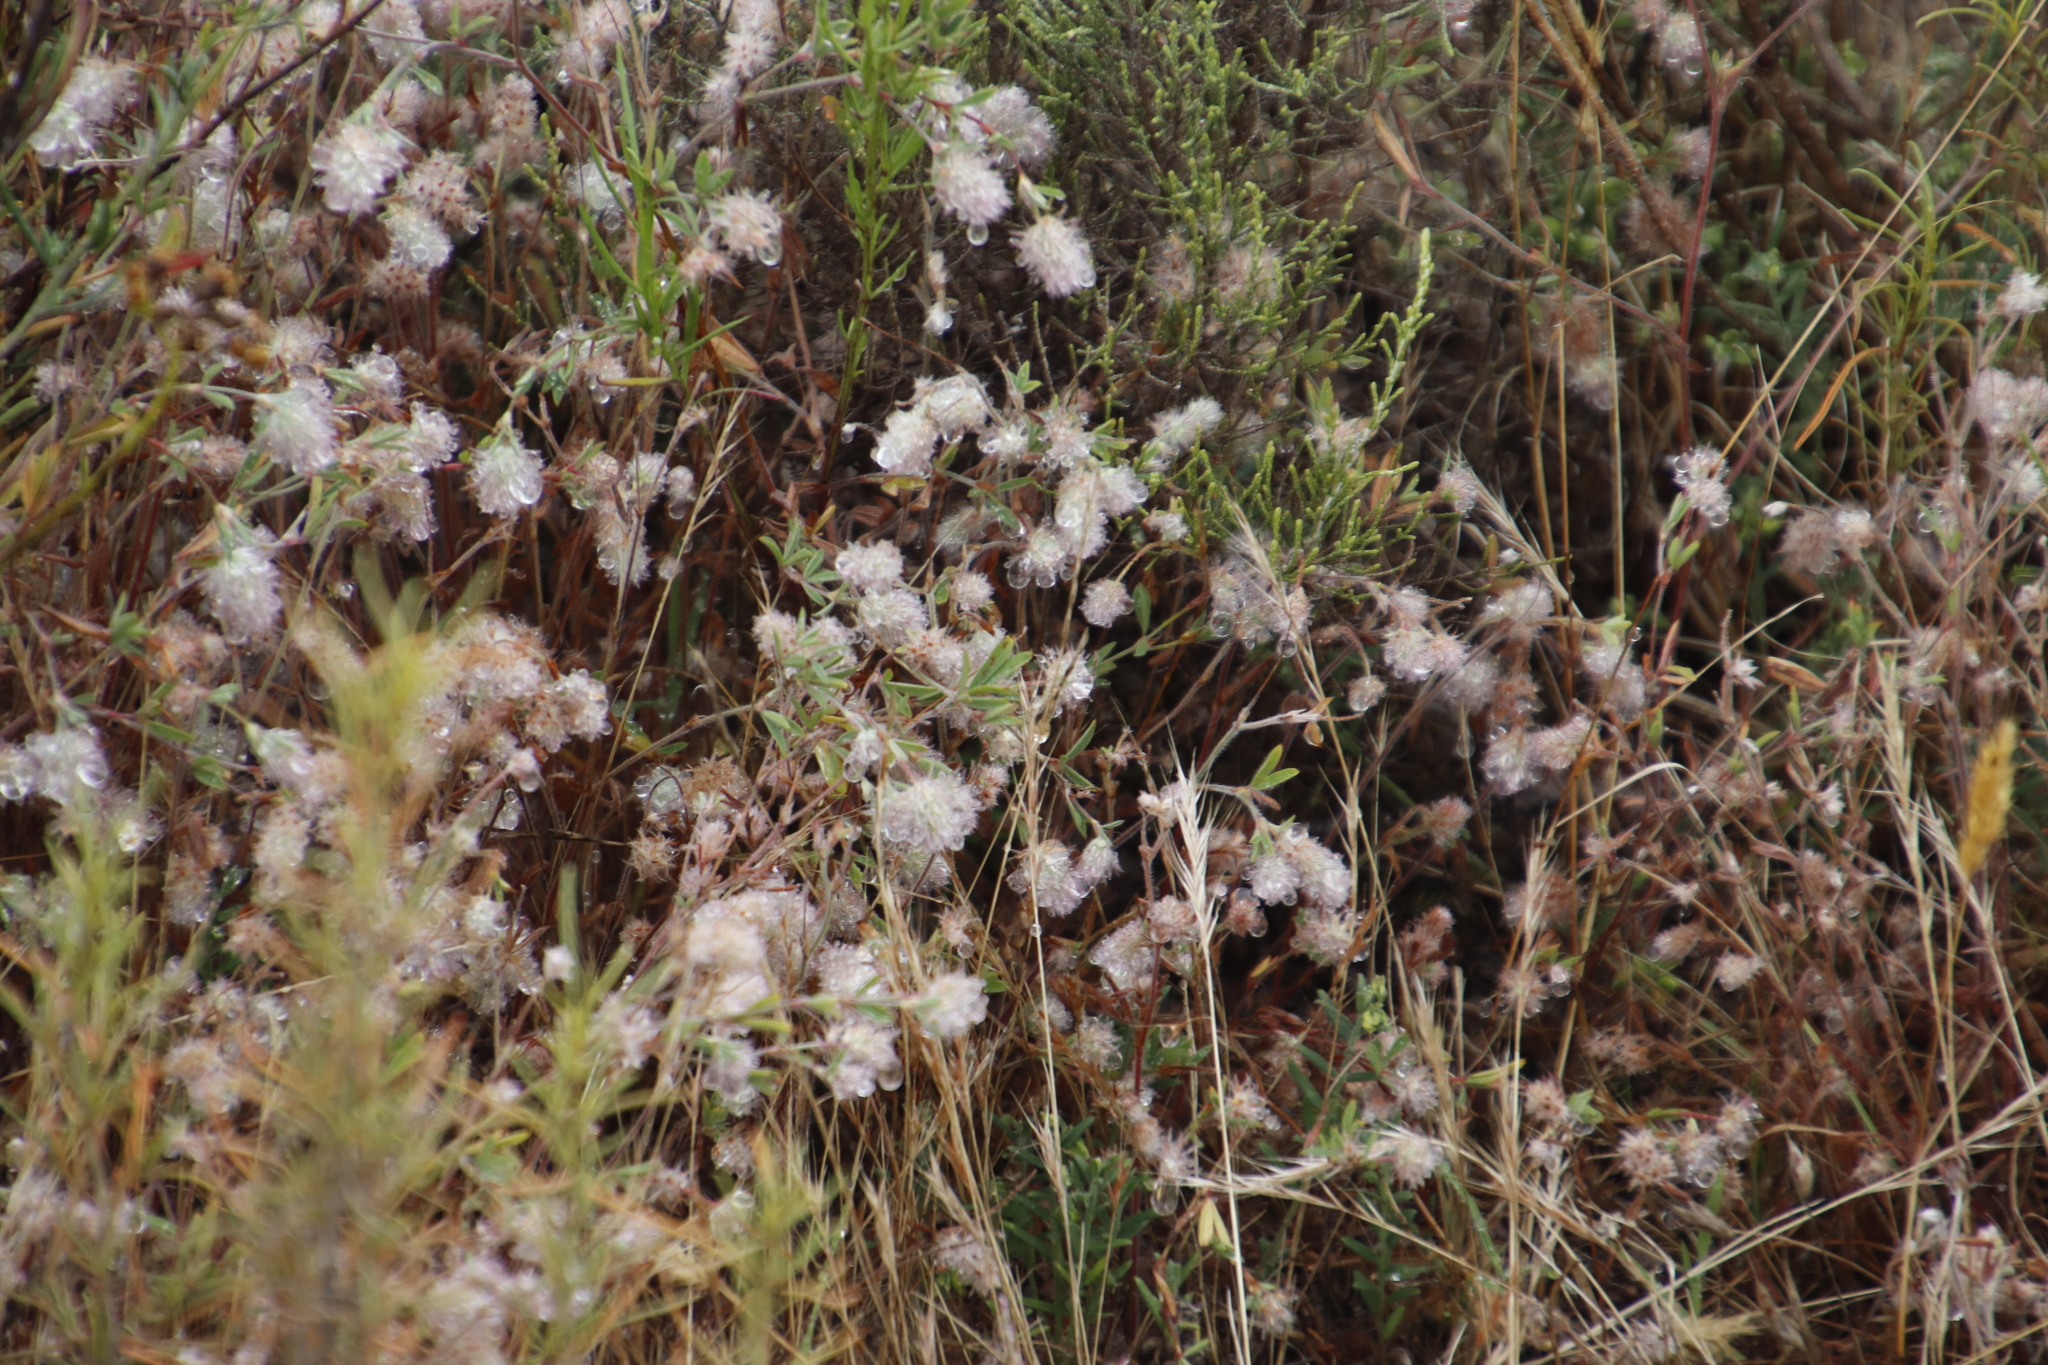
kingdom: Plantae
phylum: Tracheophyta
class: Magnoliopsida
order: Fabales
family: Fabaceae
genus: Trifolium
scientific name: Trifolium arvense
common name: Hare's-foot clover
